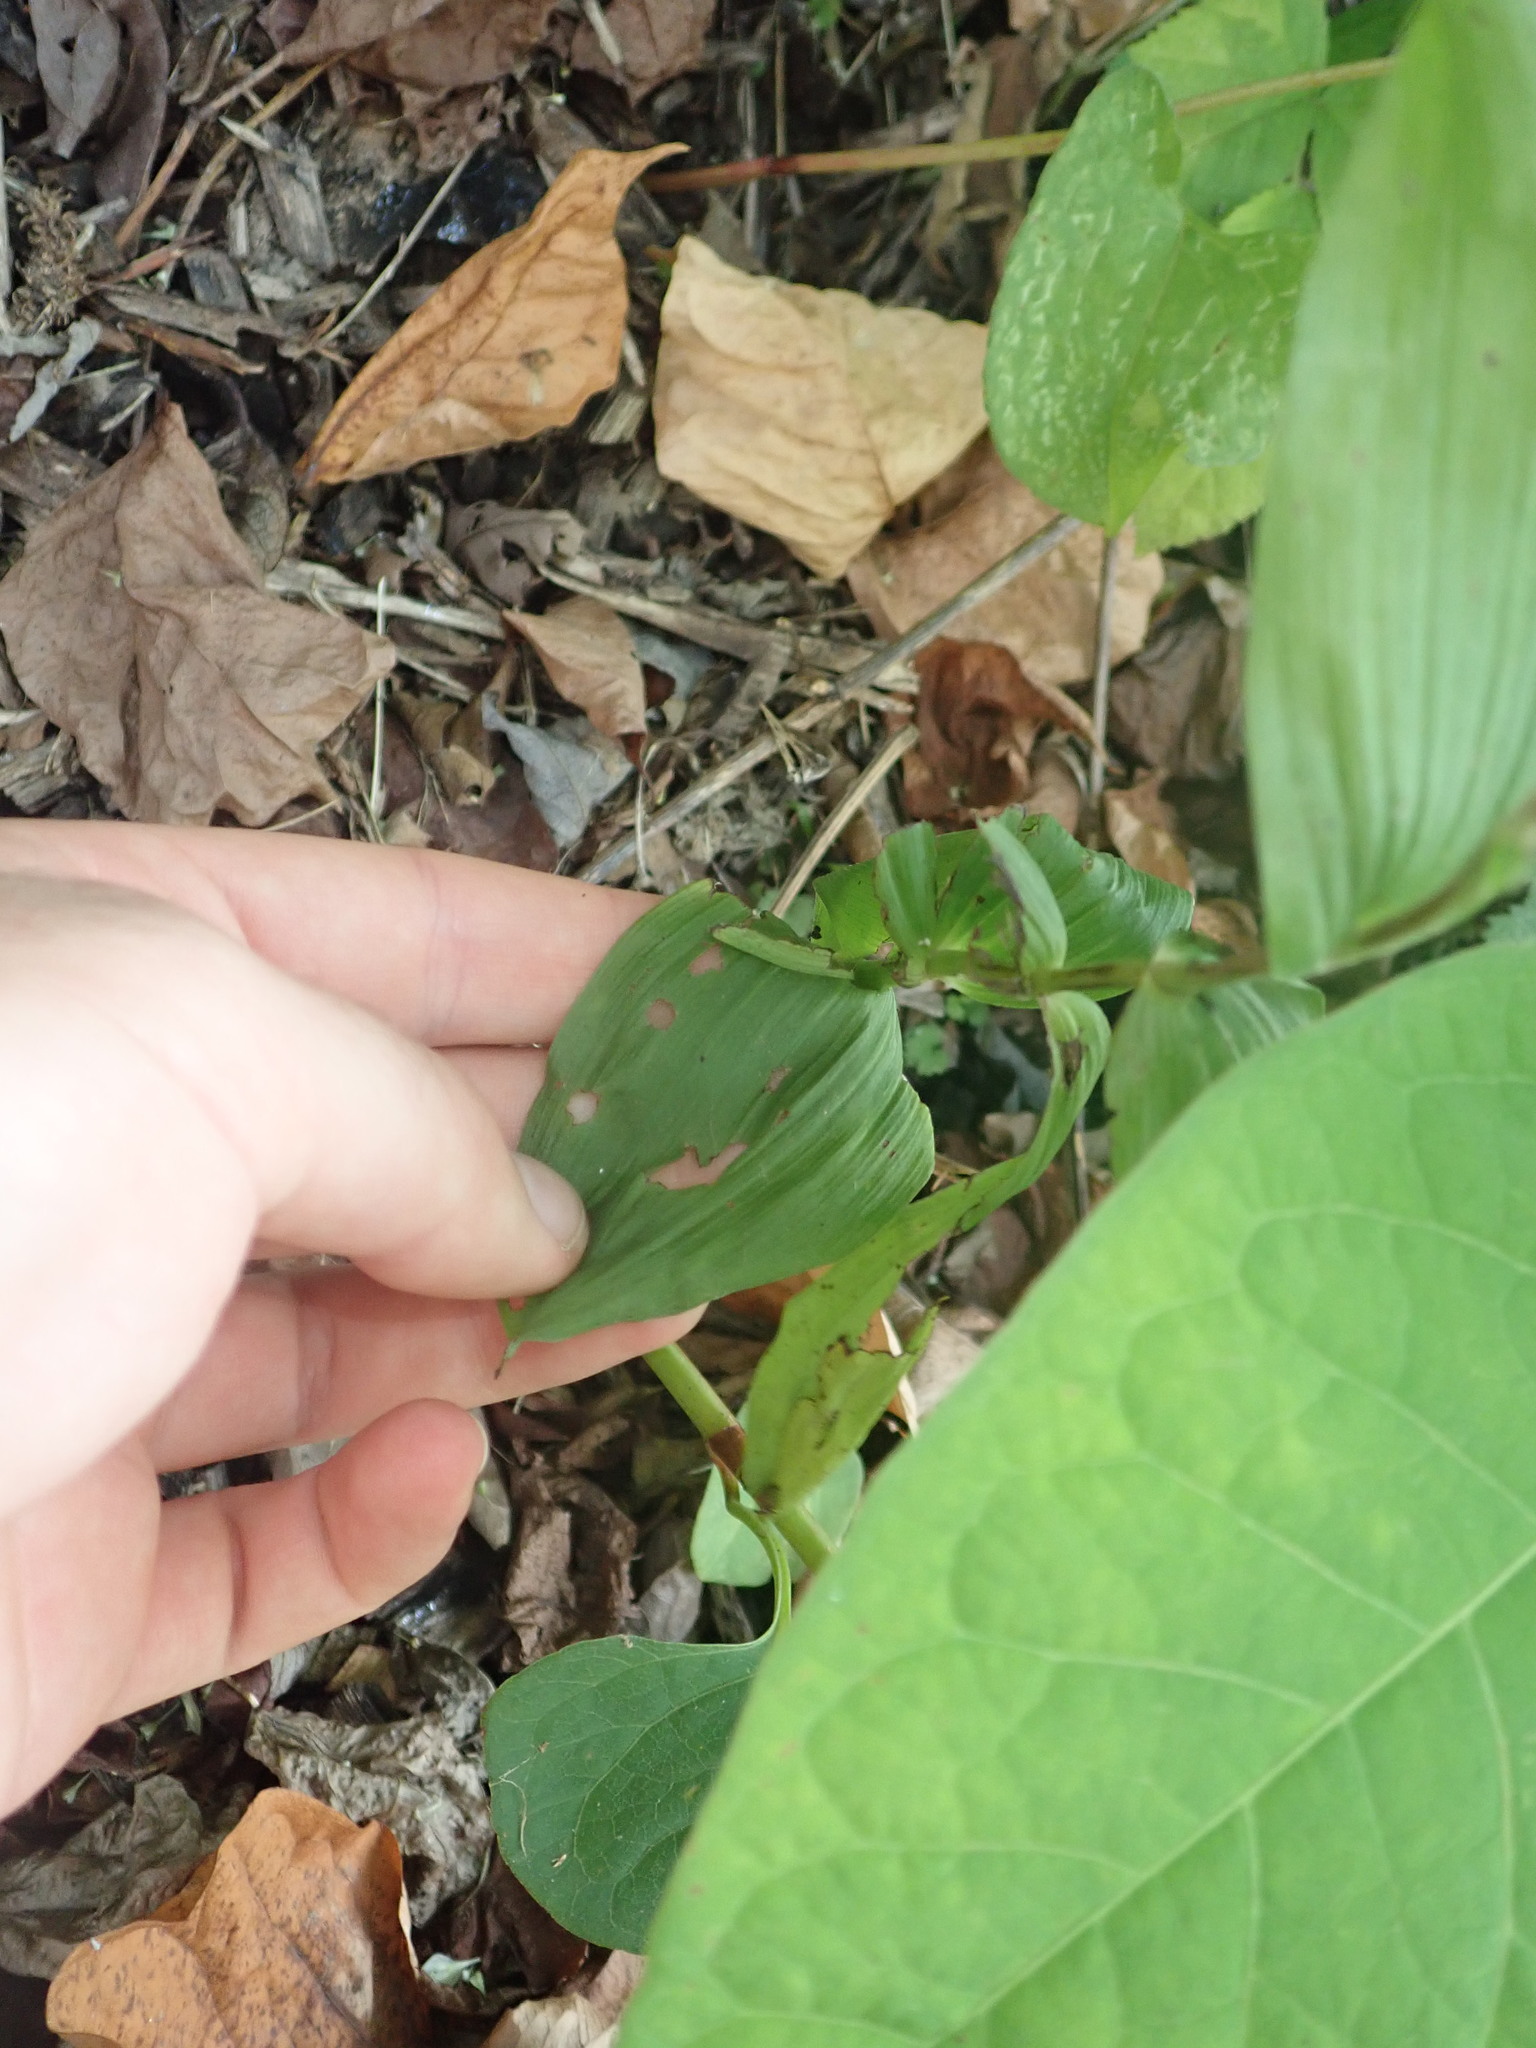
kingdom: Plantae
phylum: Tracheophyta
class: Liliopsida
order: Asparagales
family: Orchidaceae
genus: Epipactis
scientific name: Epipactis helleborine
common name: Broad-leaved helleborine
